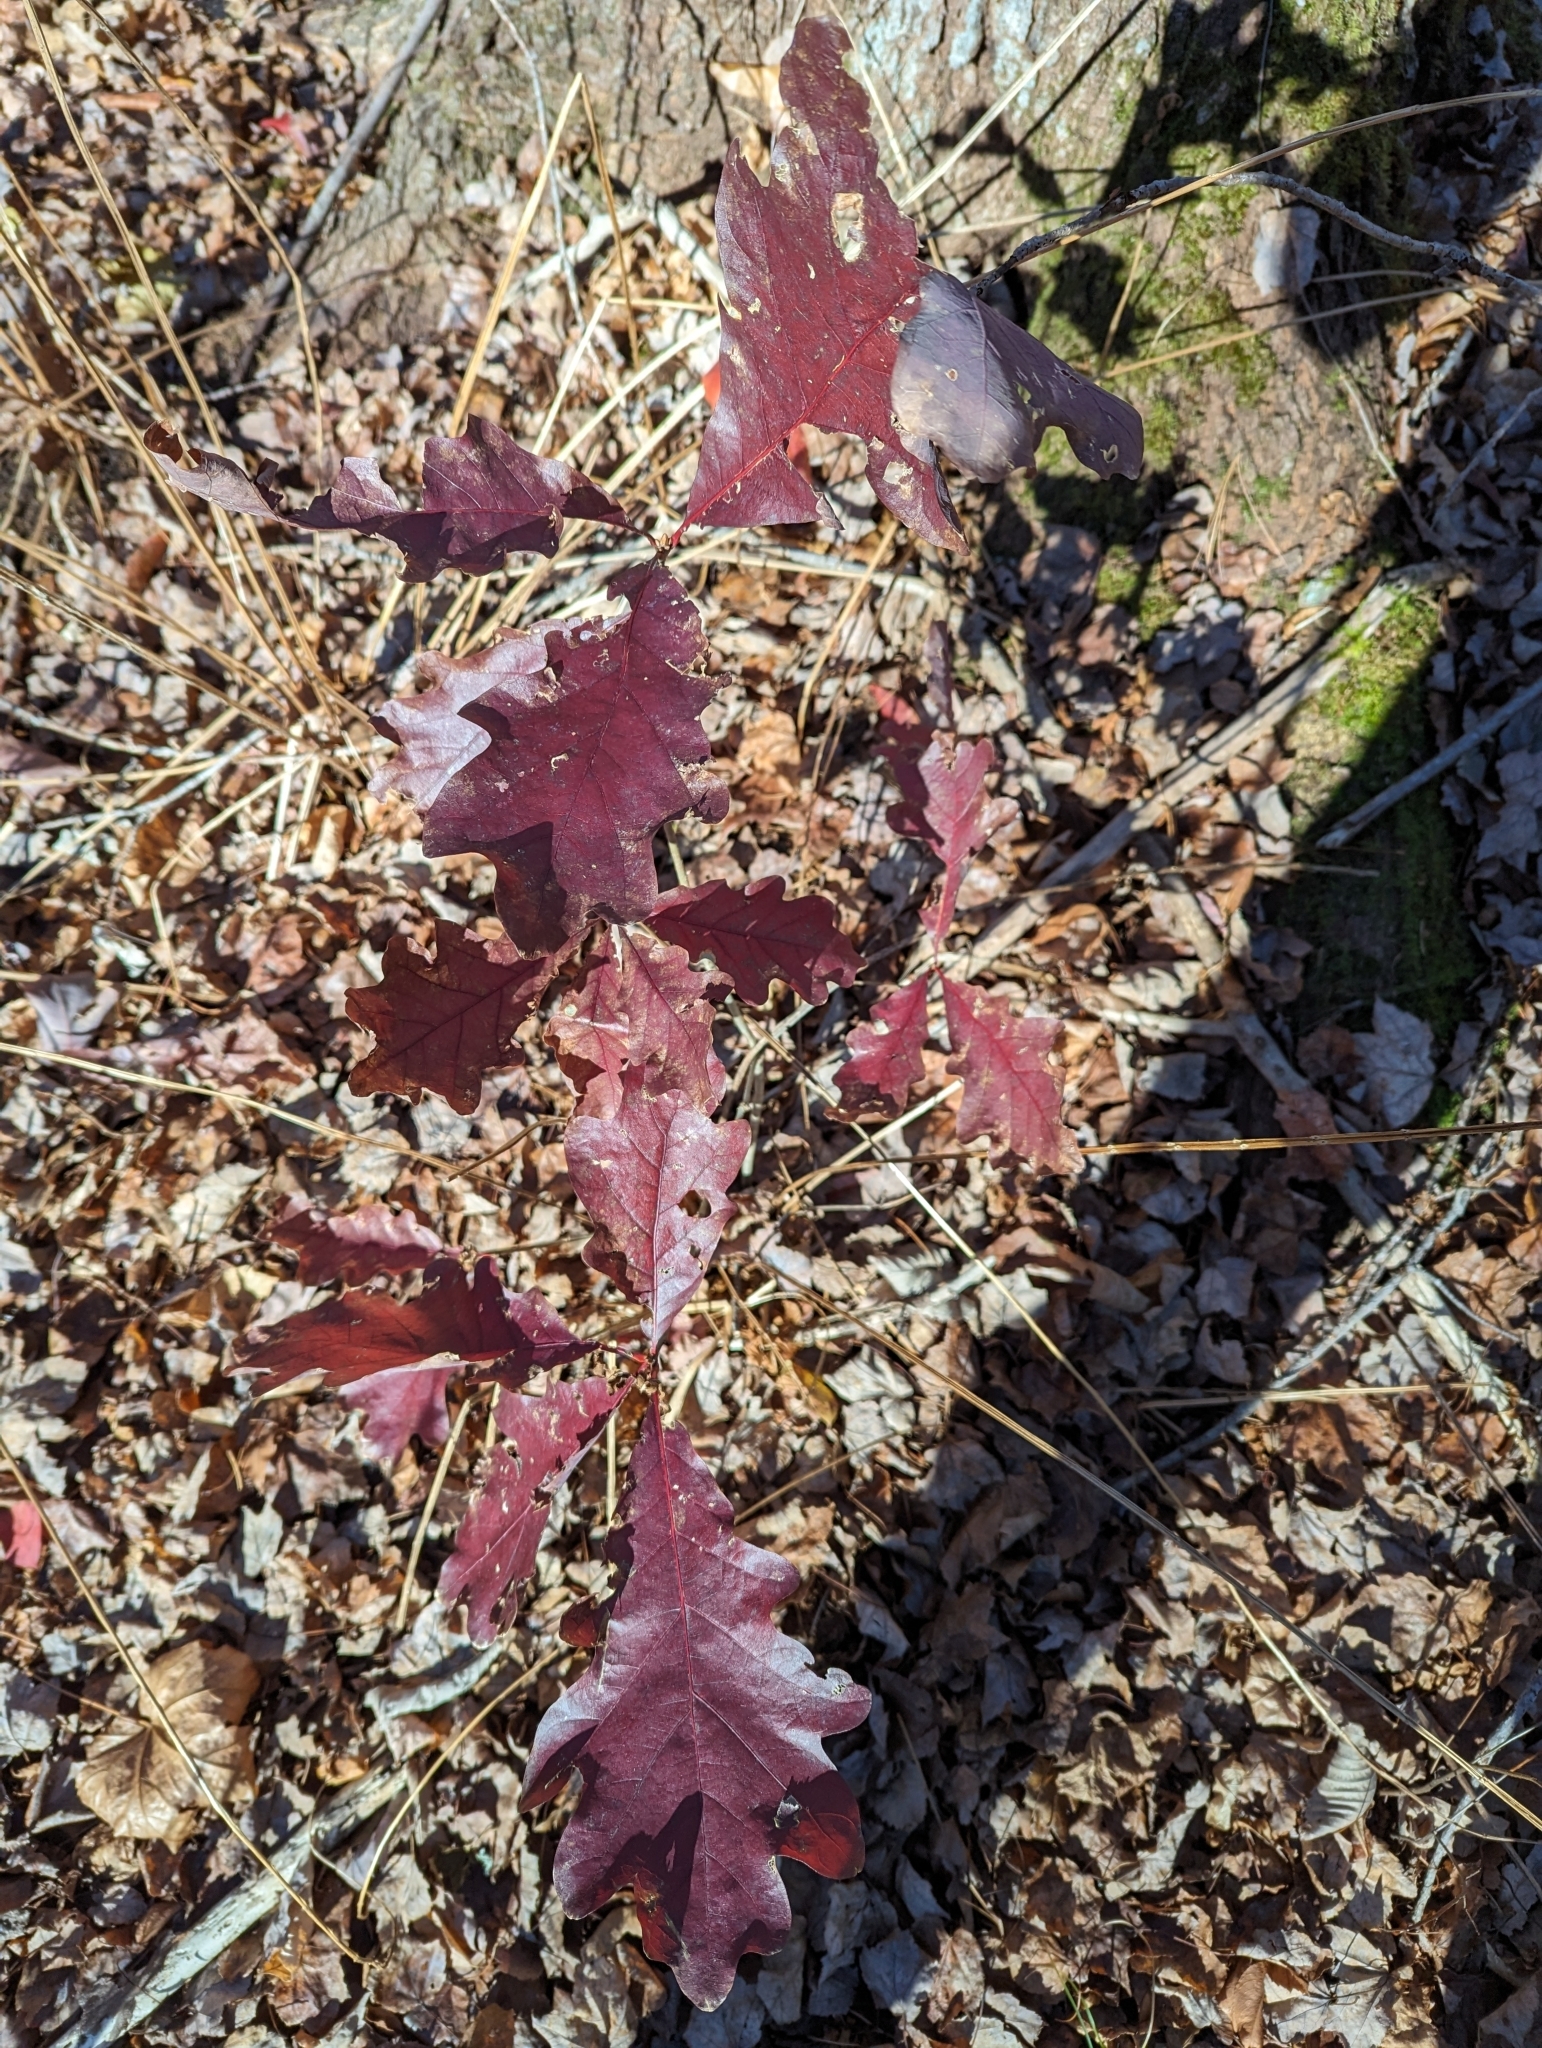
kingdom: Plantae
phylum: Tracheophyta
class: Magnoliopsida
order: Fagales
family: Fagaceae
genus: Quercus
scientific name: Quercus alba
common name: White oak
